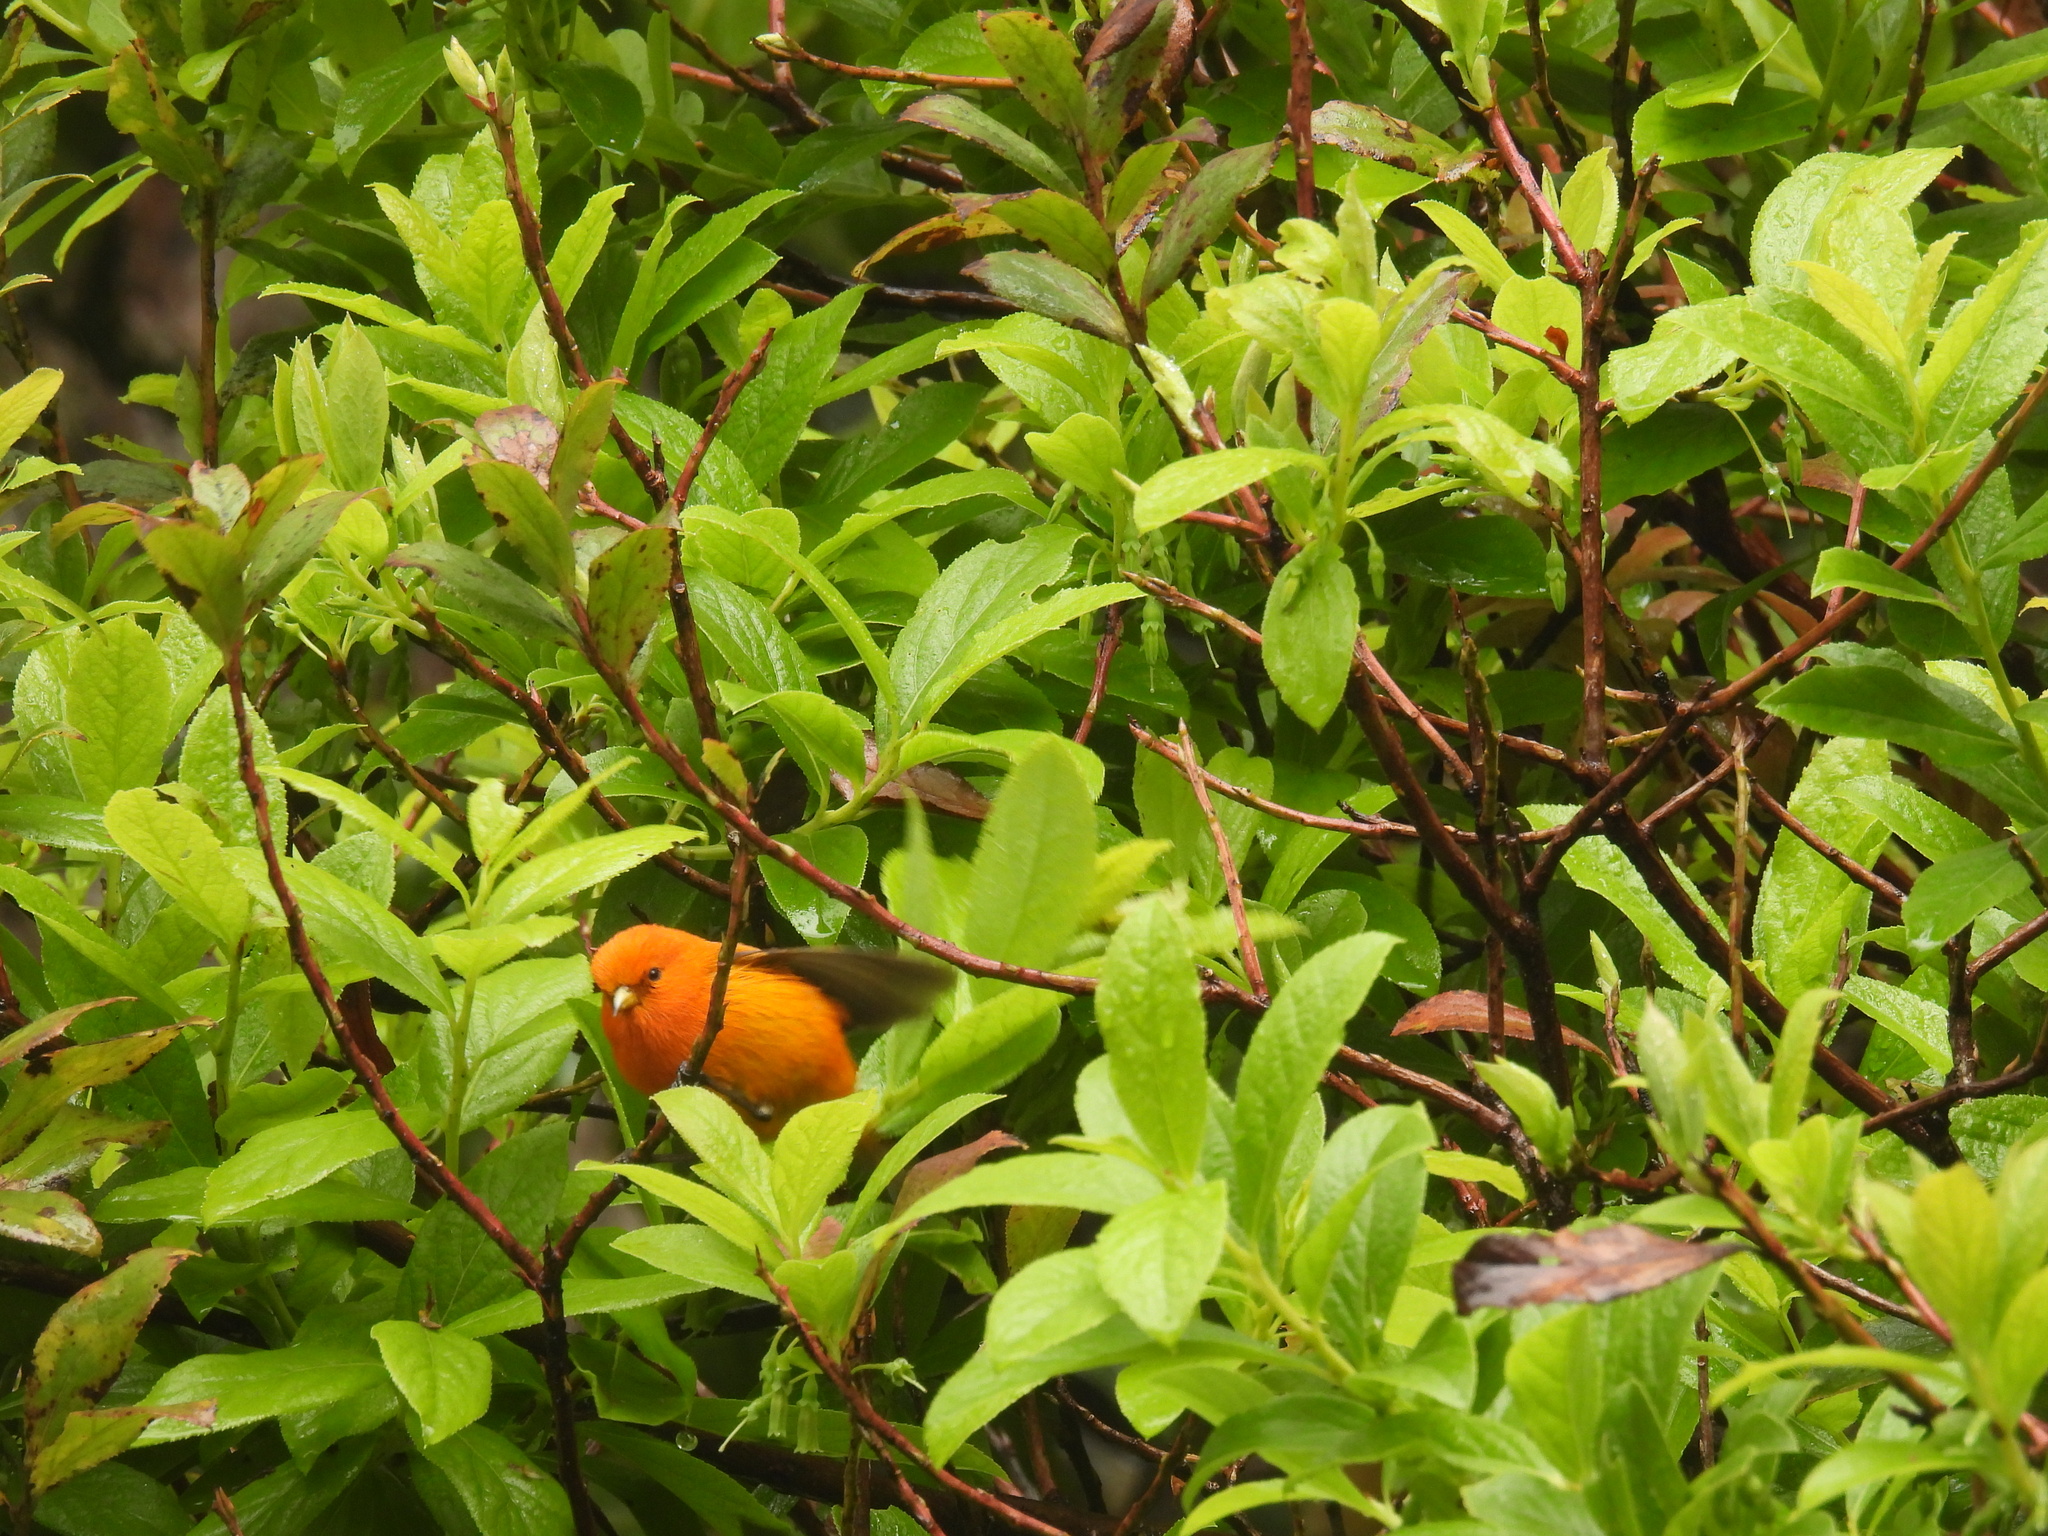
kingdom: Animalia
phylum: Chordata
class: Aves
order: Passeriformes
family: Fringillidae
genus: Loxops
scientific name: Loxops coccineus
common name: Hawaii akepa
